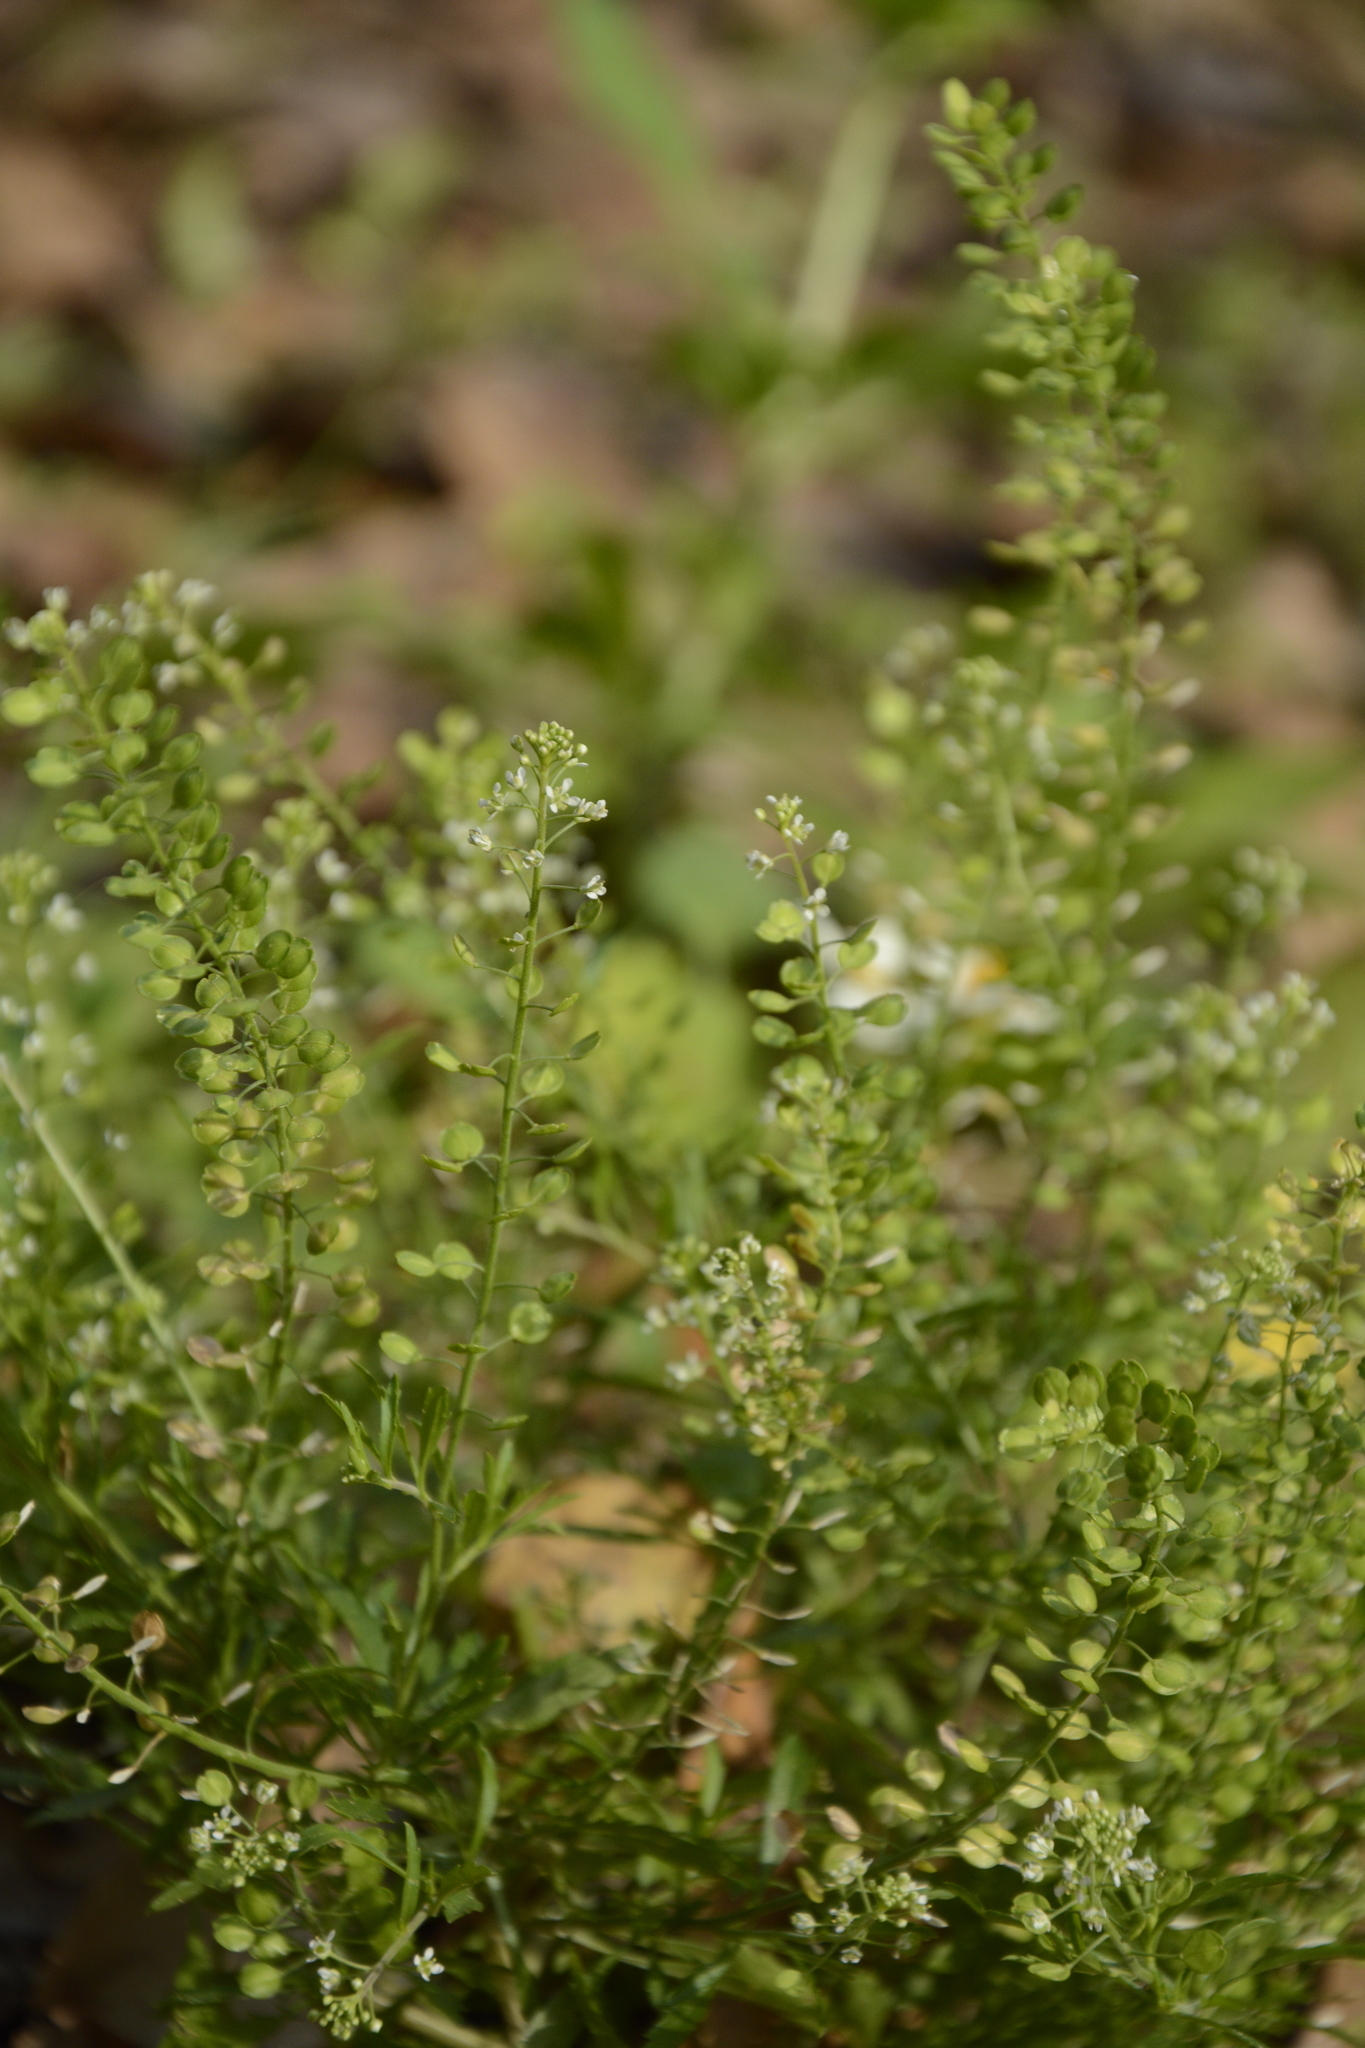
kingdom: Plantae
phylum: Tracheophyta
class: Magnoliopsida
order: Brassicales
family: Brassicaceae
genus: Lepidium
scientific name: Lepidium virginicum
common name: Least pepperwort
